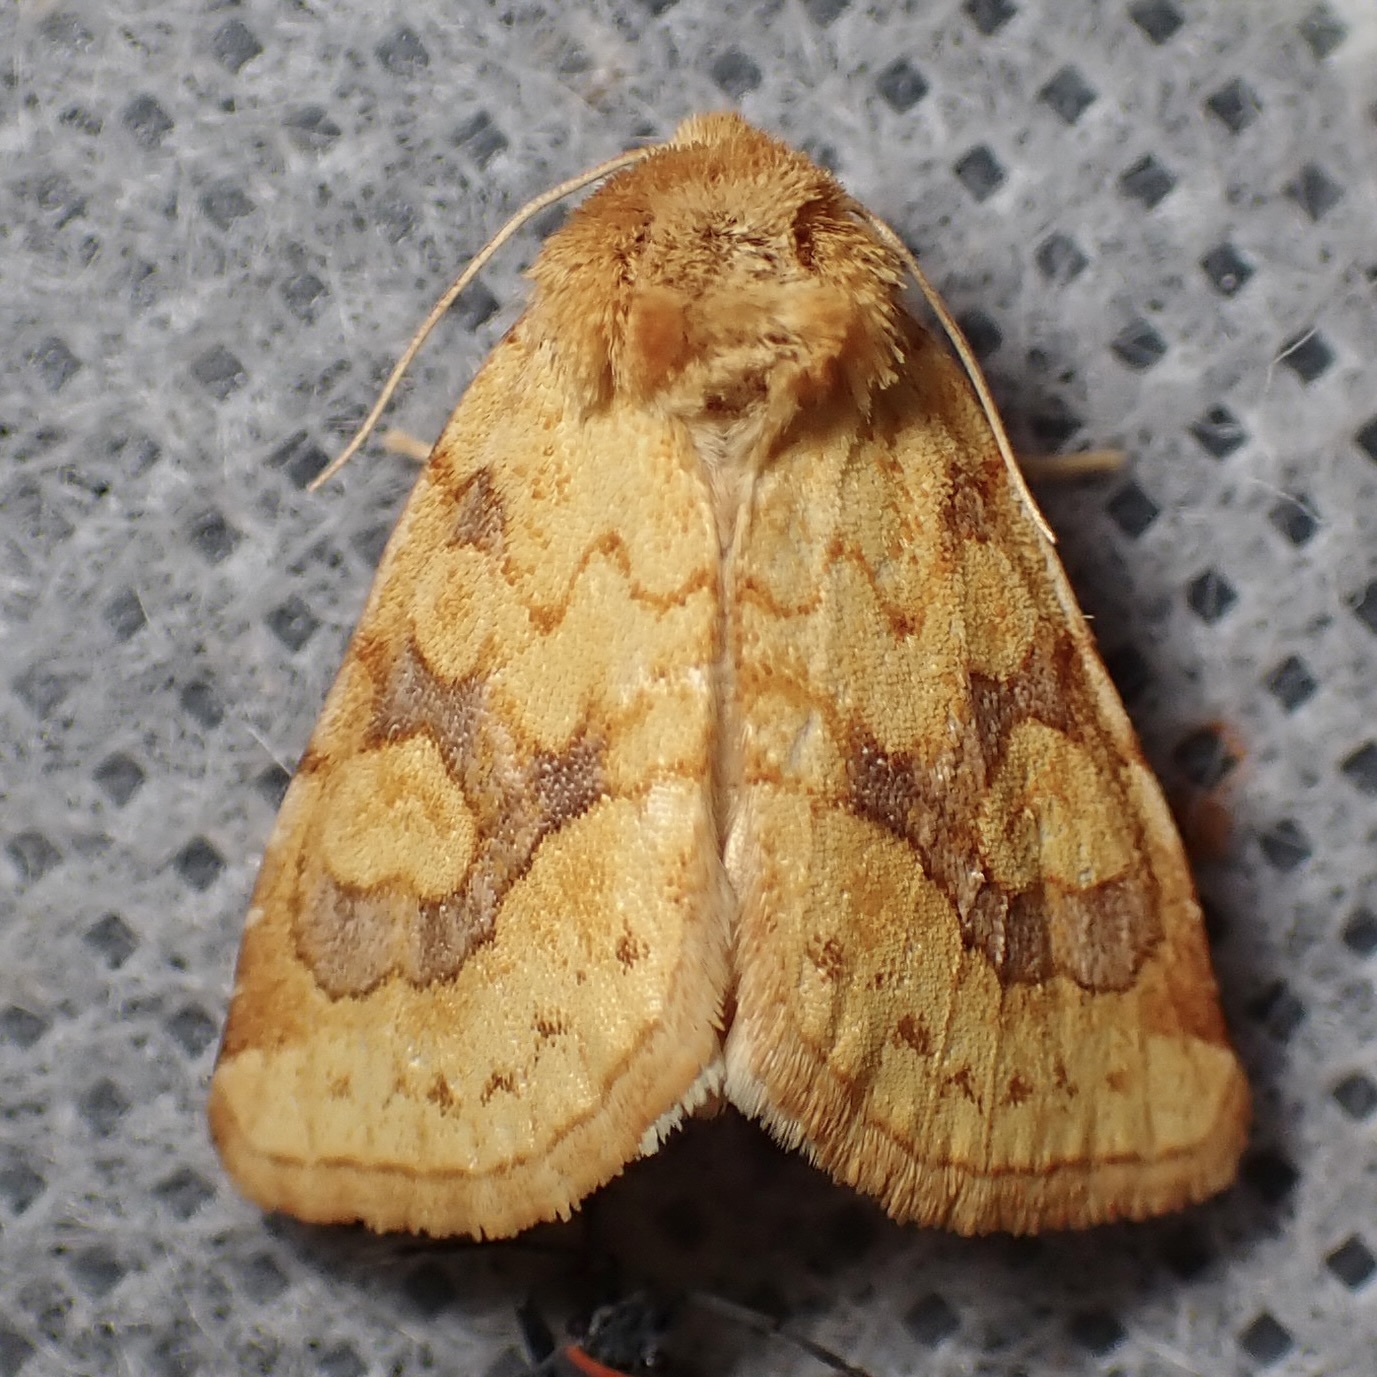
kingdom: Animalia
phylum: Arthropoda
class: Insecta
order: Lepidoptera
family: Noctuidae
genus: Nocloa
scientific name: Nocloa cordova
